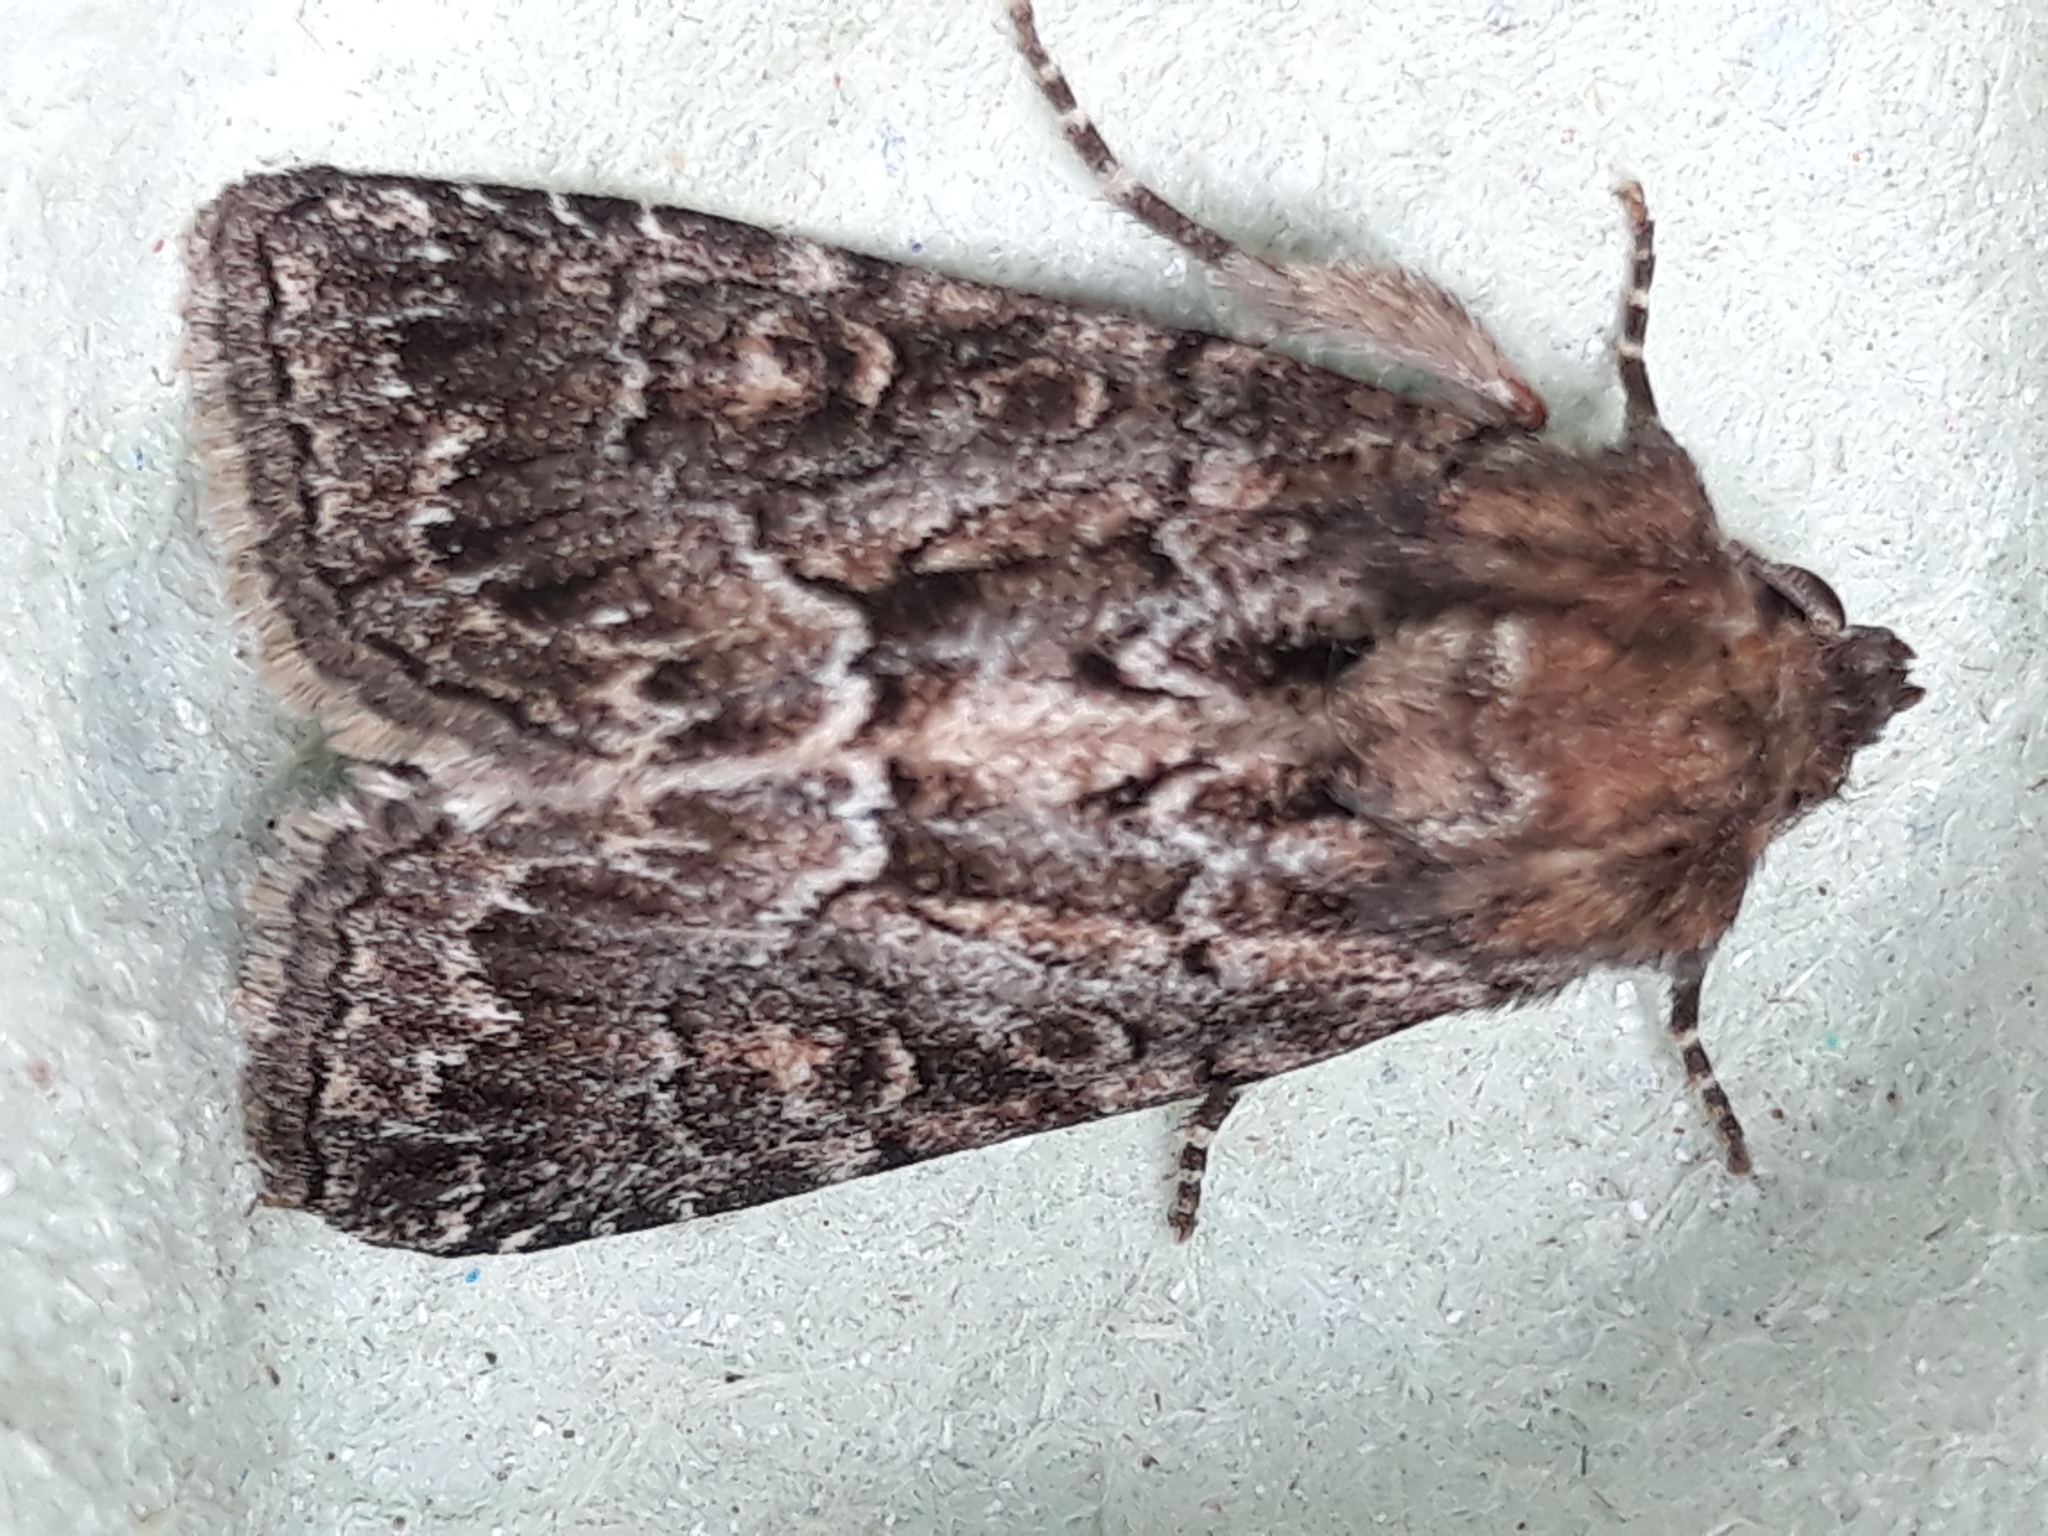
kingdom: Animalia
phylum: Arthropoda
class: Insecta
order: Lepidoptera
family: Noctuidae
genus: Thalpophila
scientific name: Thalpophila matura
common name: Straw underwing
